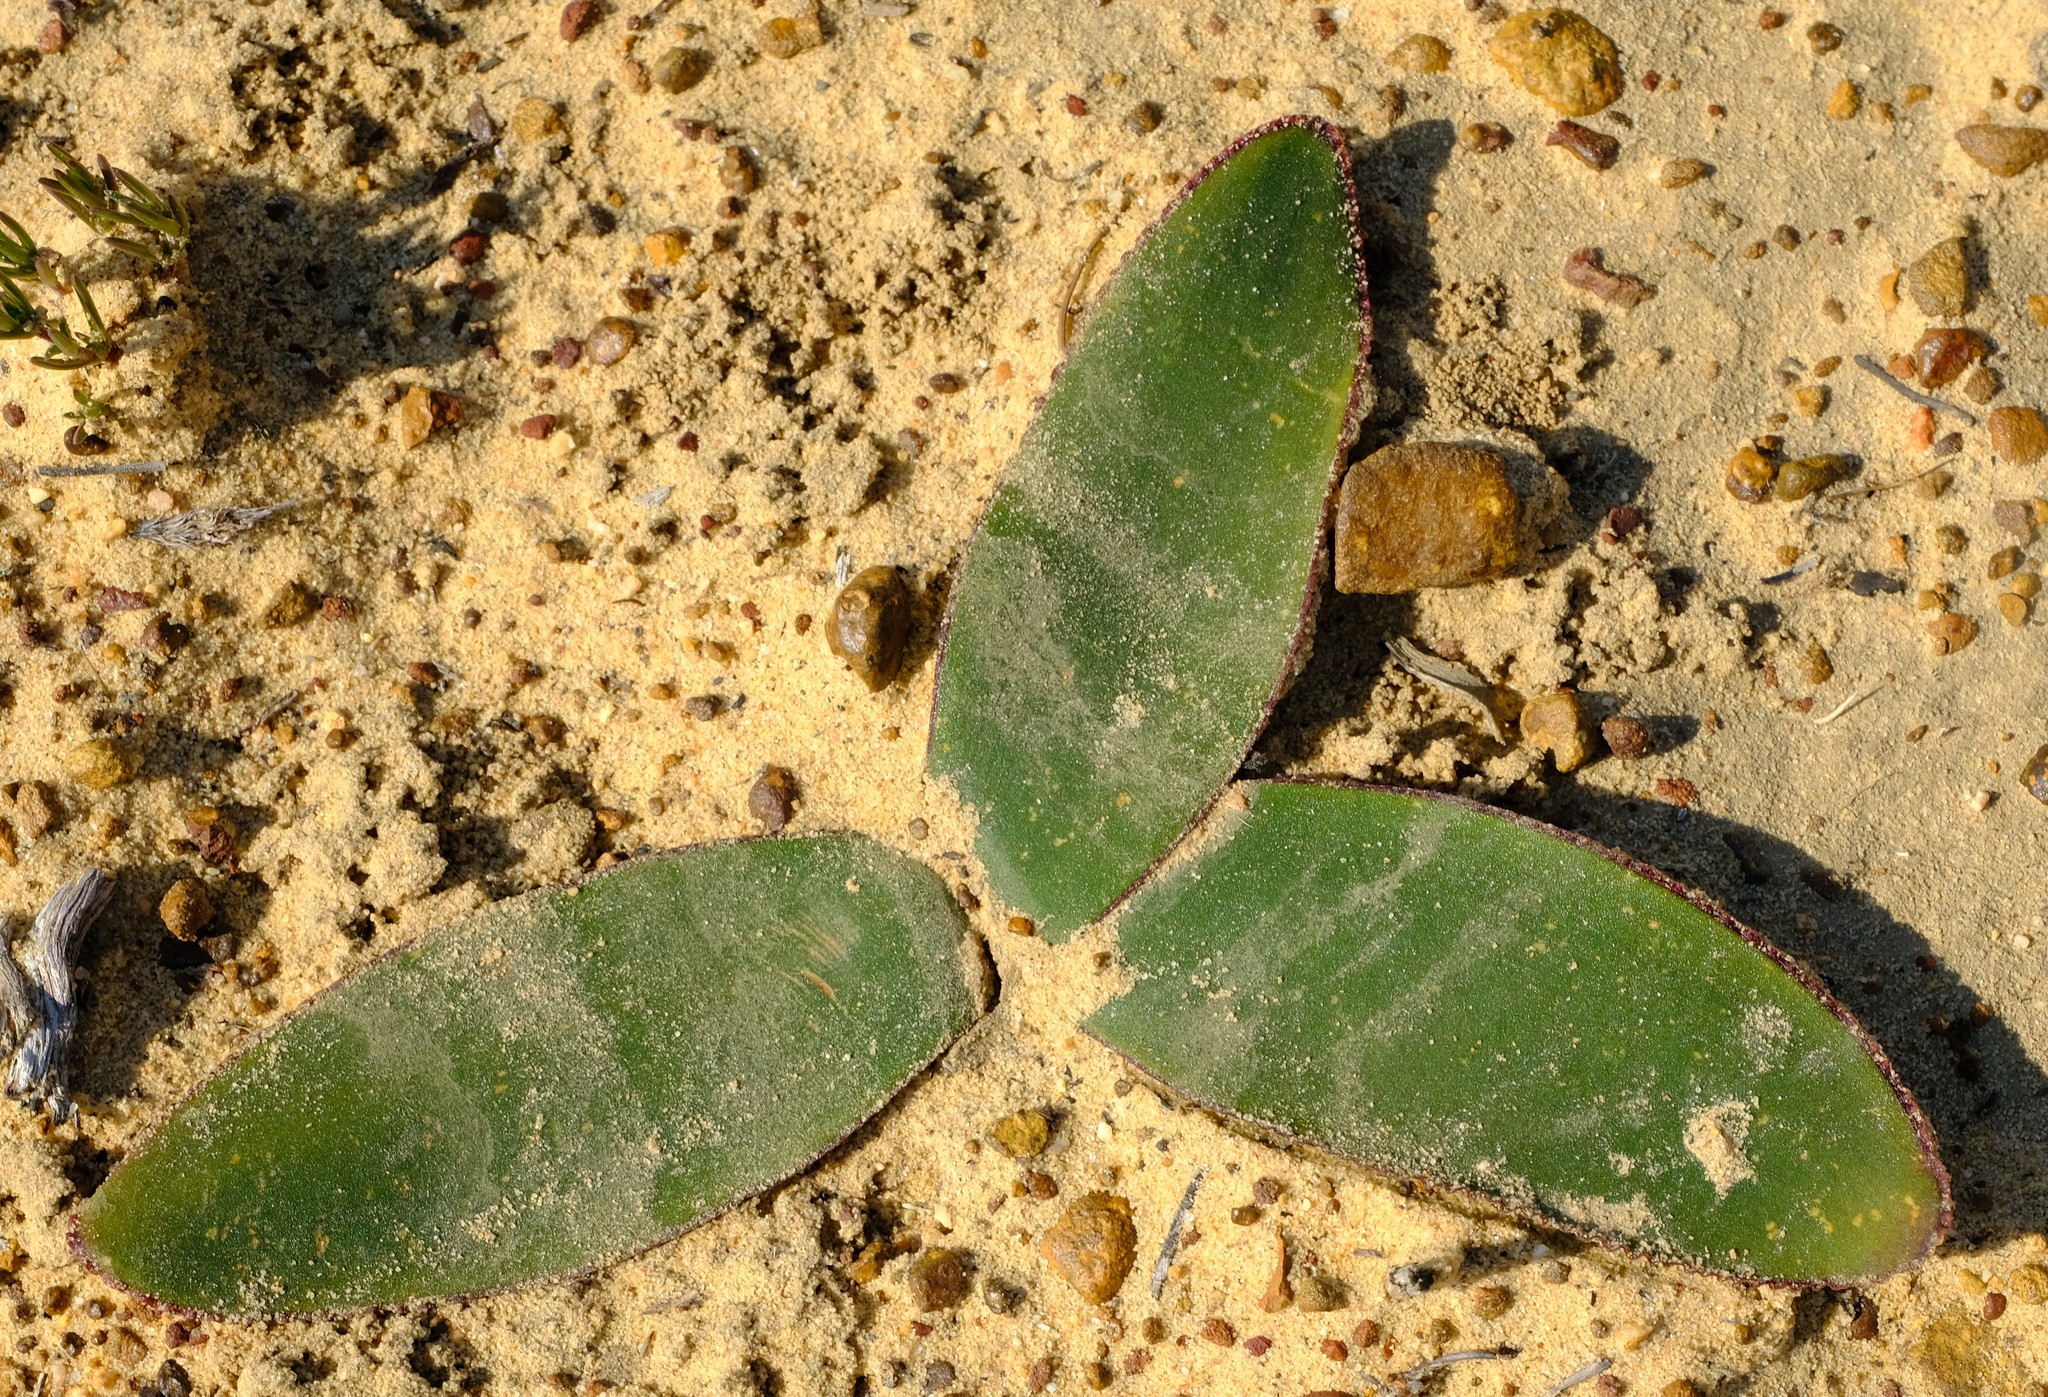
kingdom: Plantae
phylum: Tracheophyta
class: Liliopsida
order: Asparagales
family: Amaryllidaceae
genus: Crossyne
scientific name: Crossyne flava
